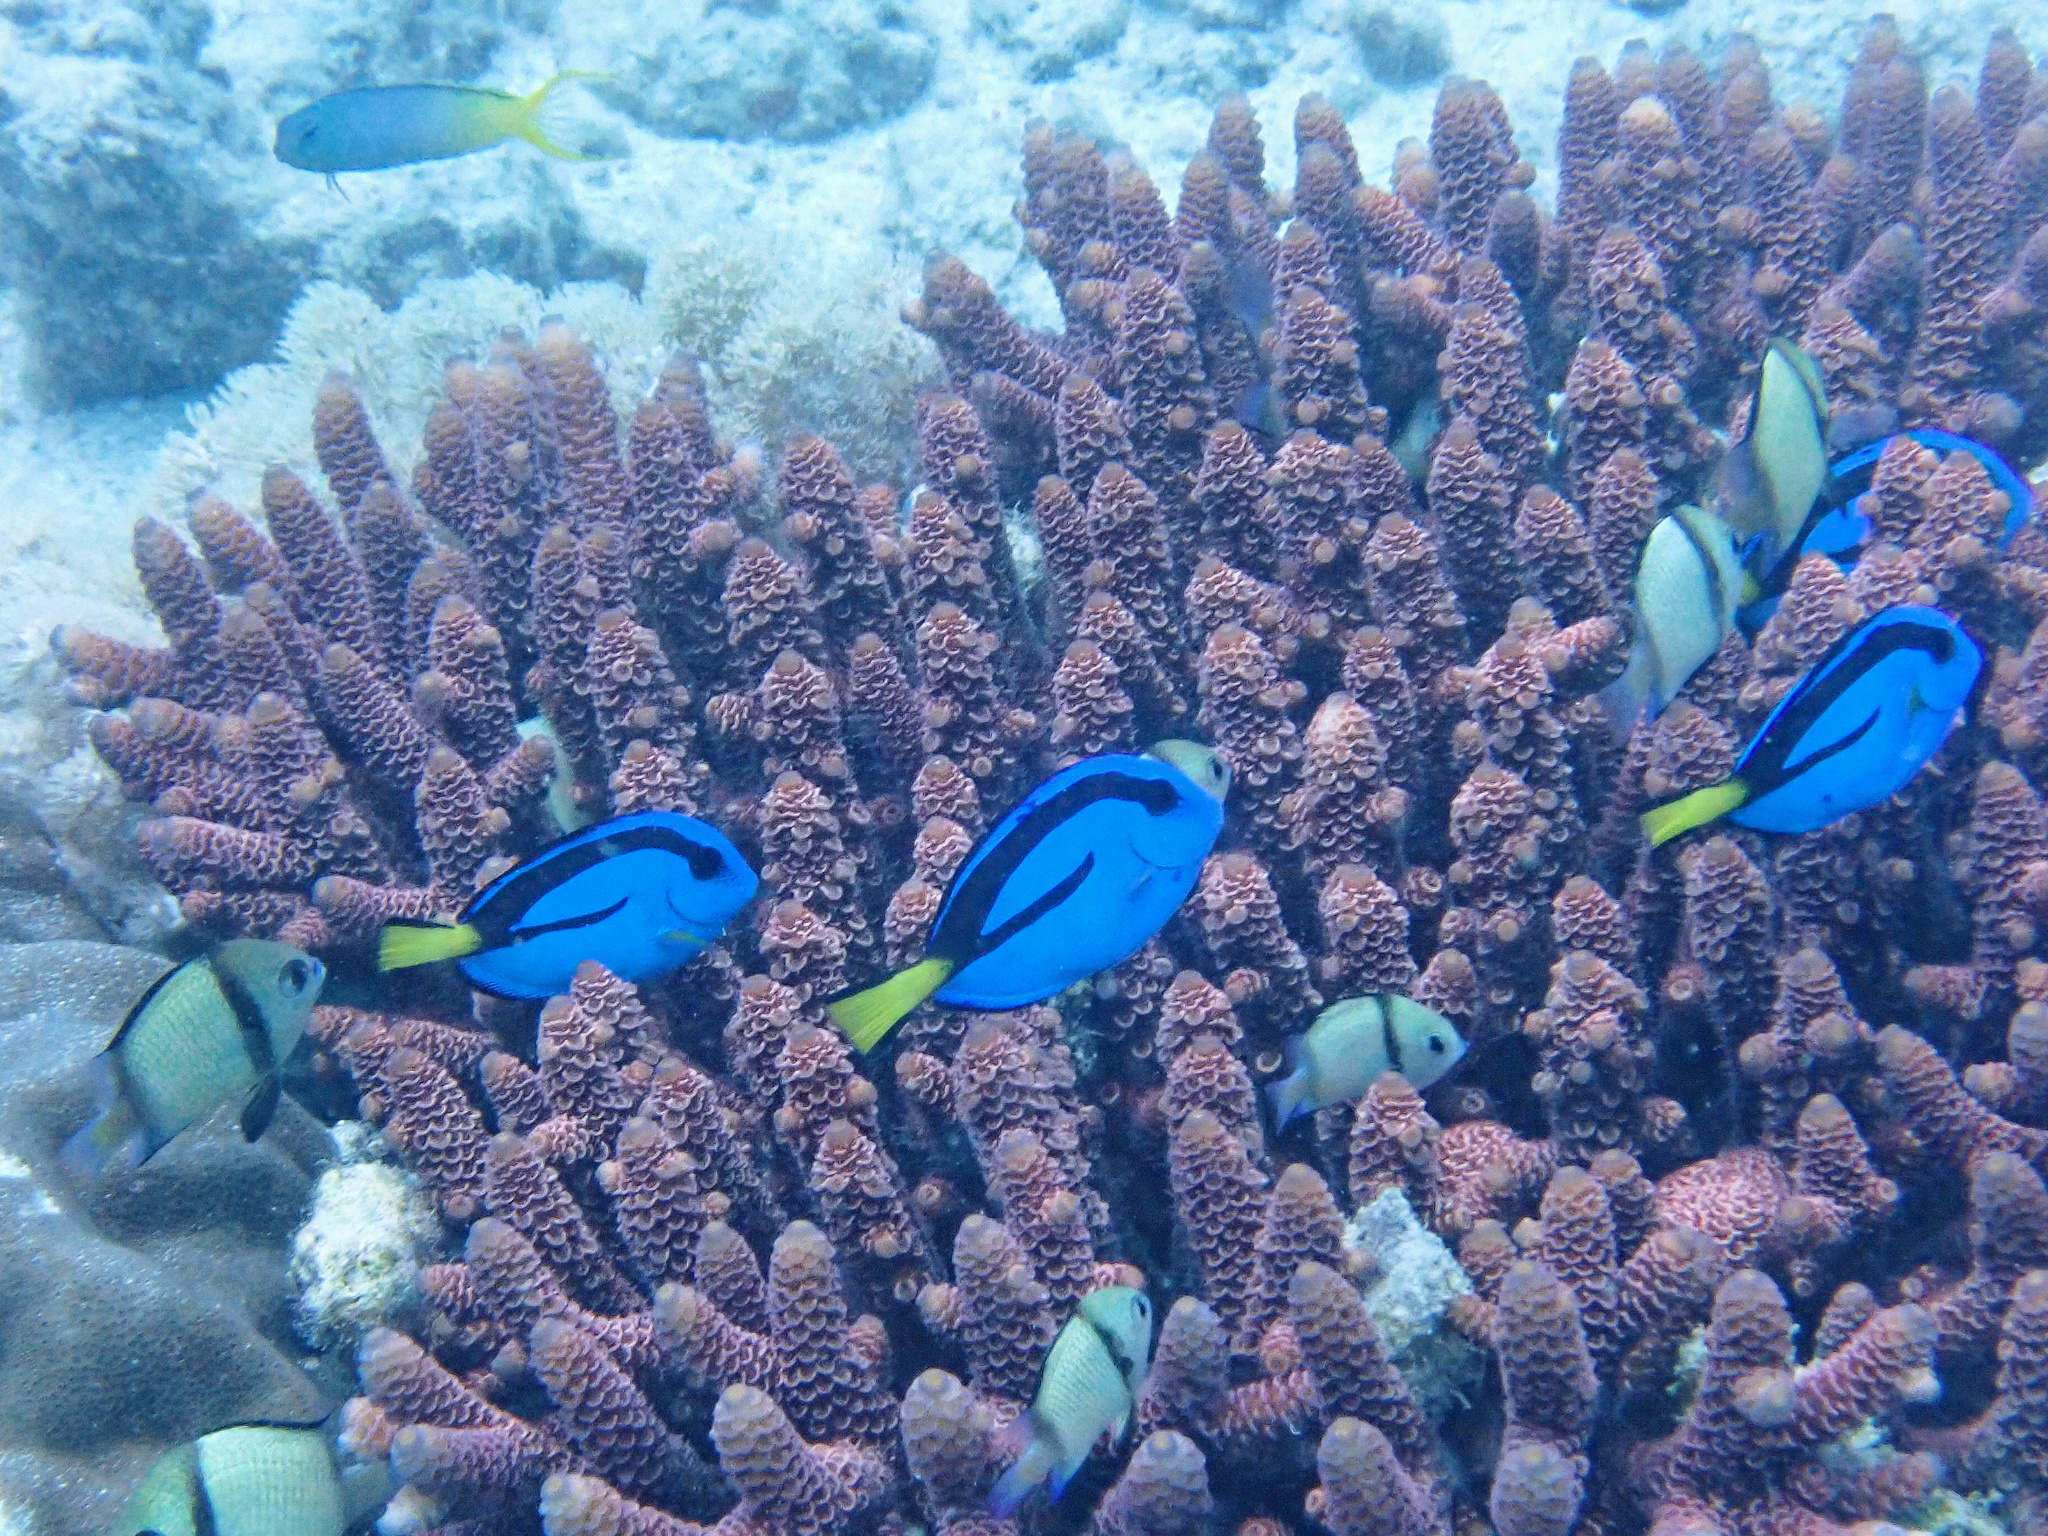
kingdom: Animalia
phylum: Chordata
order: Perciformes
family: Acanthuridae
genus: Paracanthurus
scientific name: Paracanthurus hepatus
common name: Palette surgeonfish
